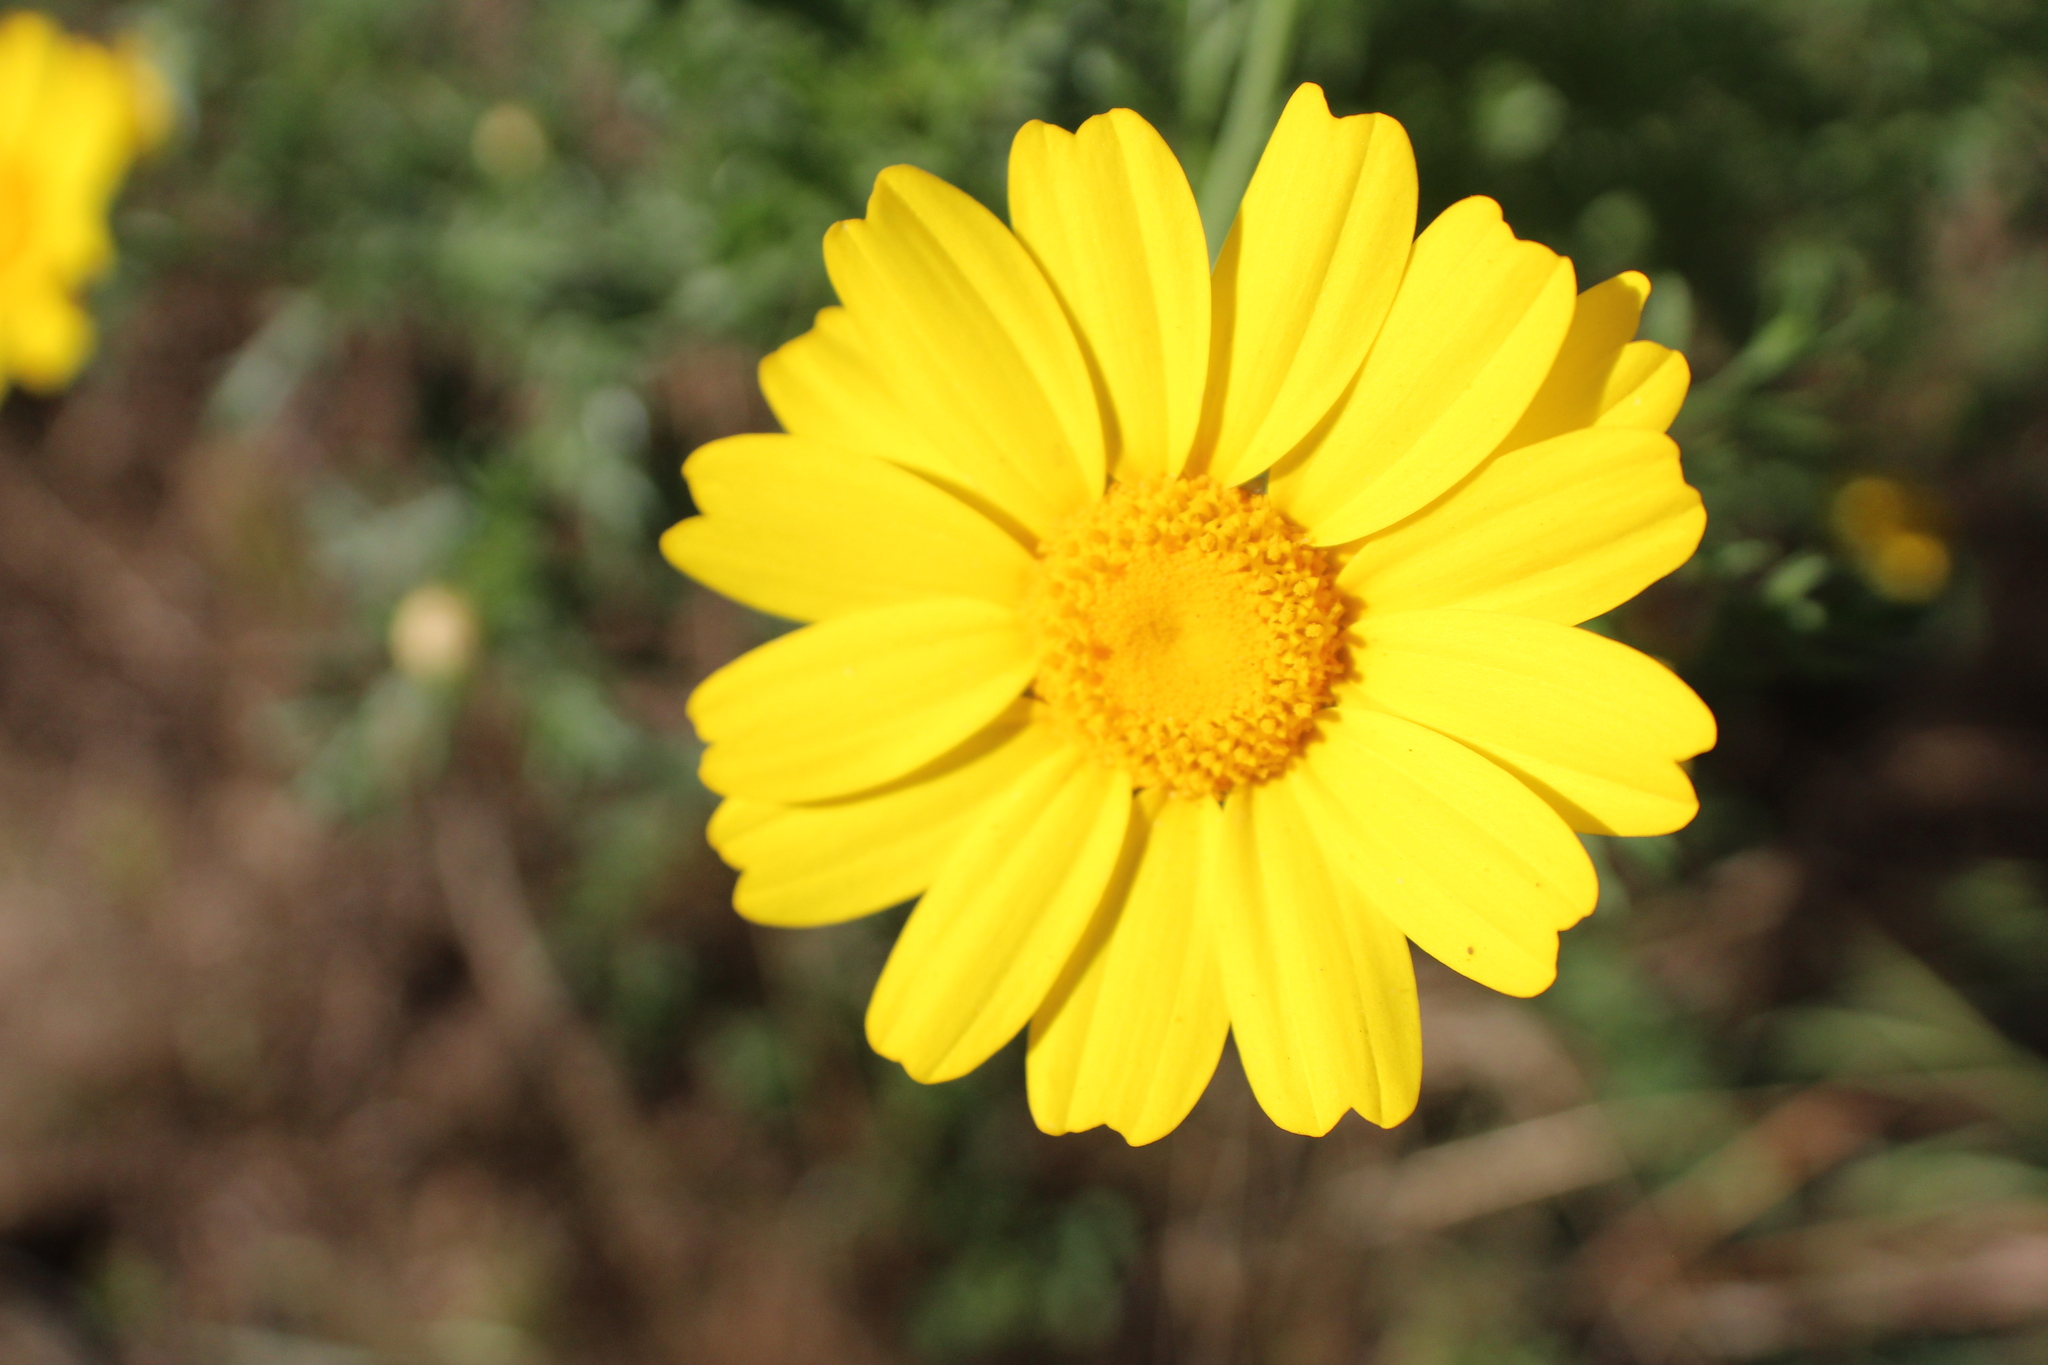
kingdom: Plantae
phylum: Tracheophyta
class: Magnoliopsida
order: Asterales
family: Asteraceae
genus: Glebionis
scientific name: Glebionis coronaria
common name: Crowndaisy
